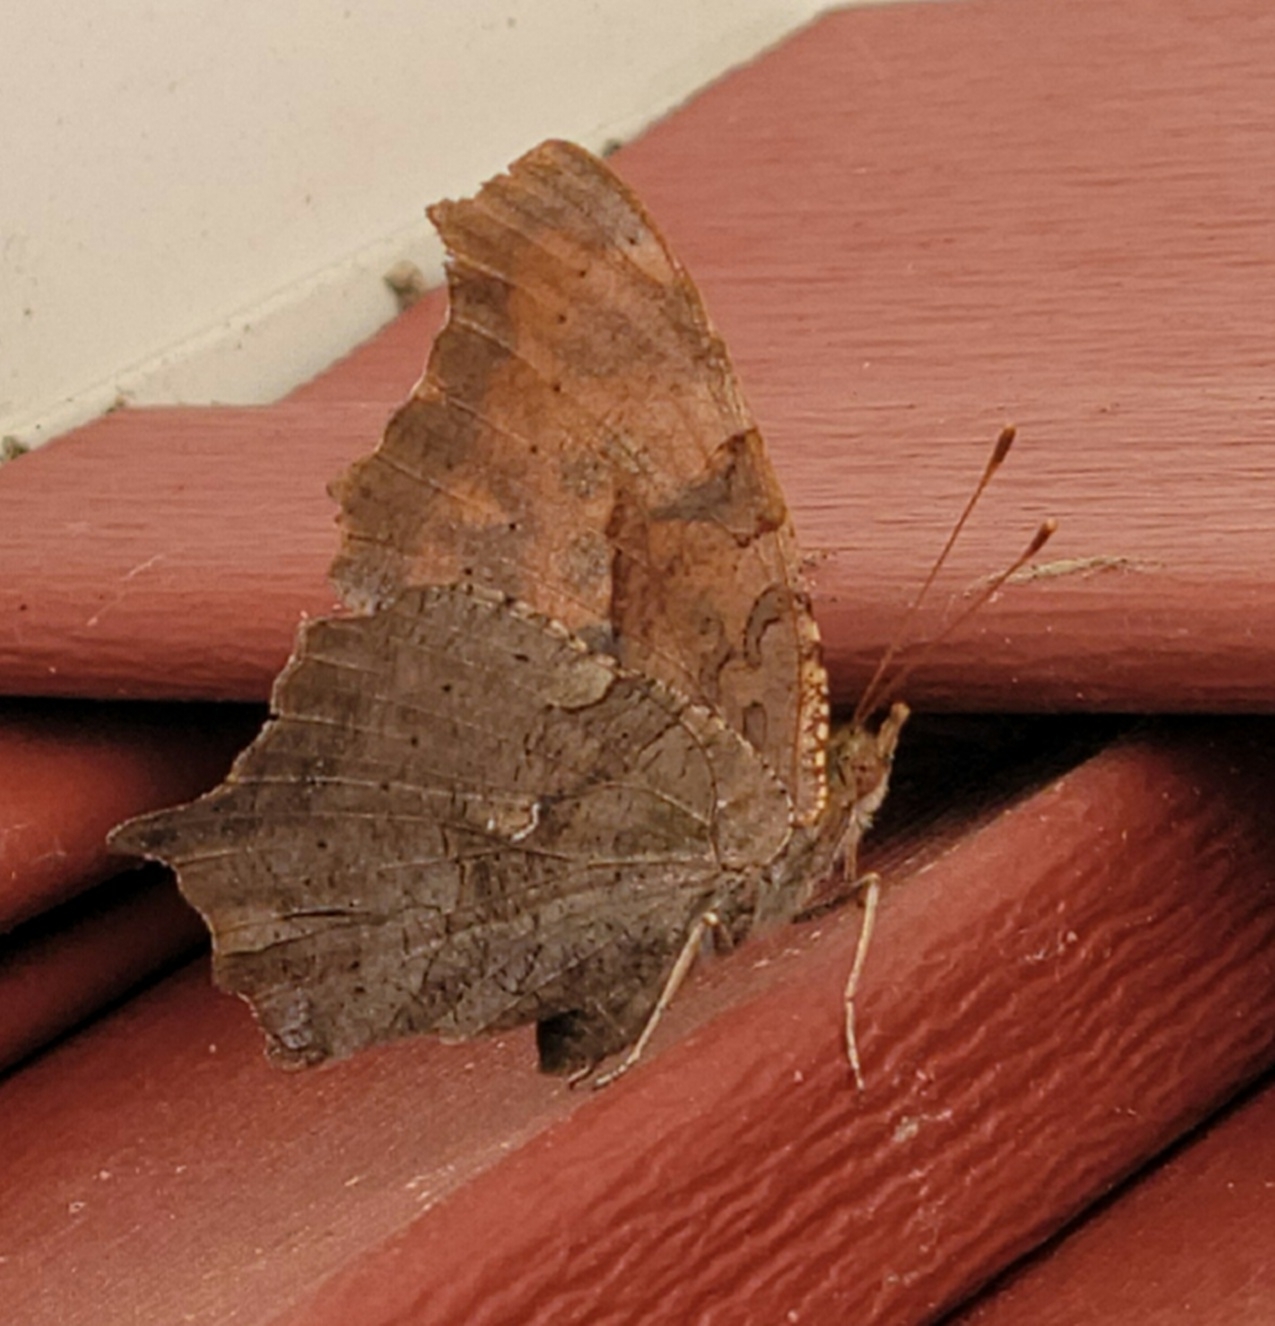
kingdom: Animalia
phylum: Arthropoda
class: Insecta
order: Lepidoptera
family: Nymphalidae
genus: Polygonia
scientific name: Polygonia interrogationis
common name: Question mark
